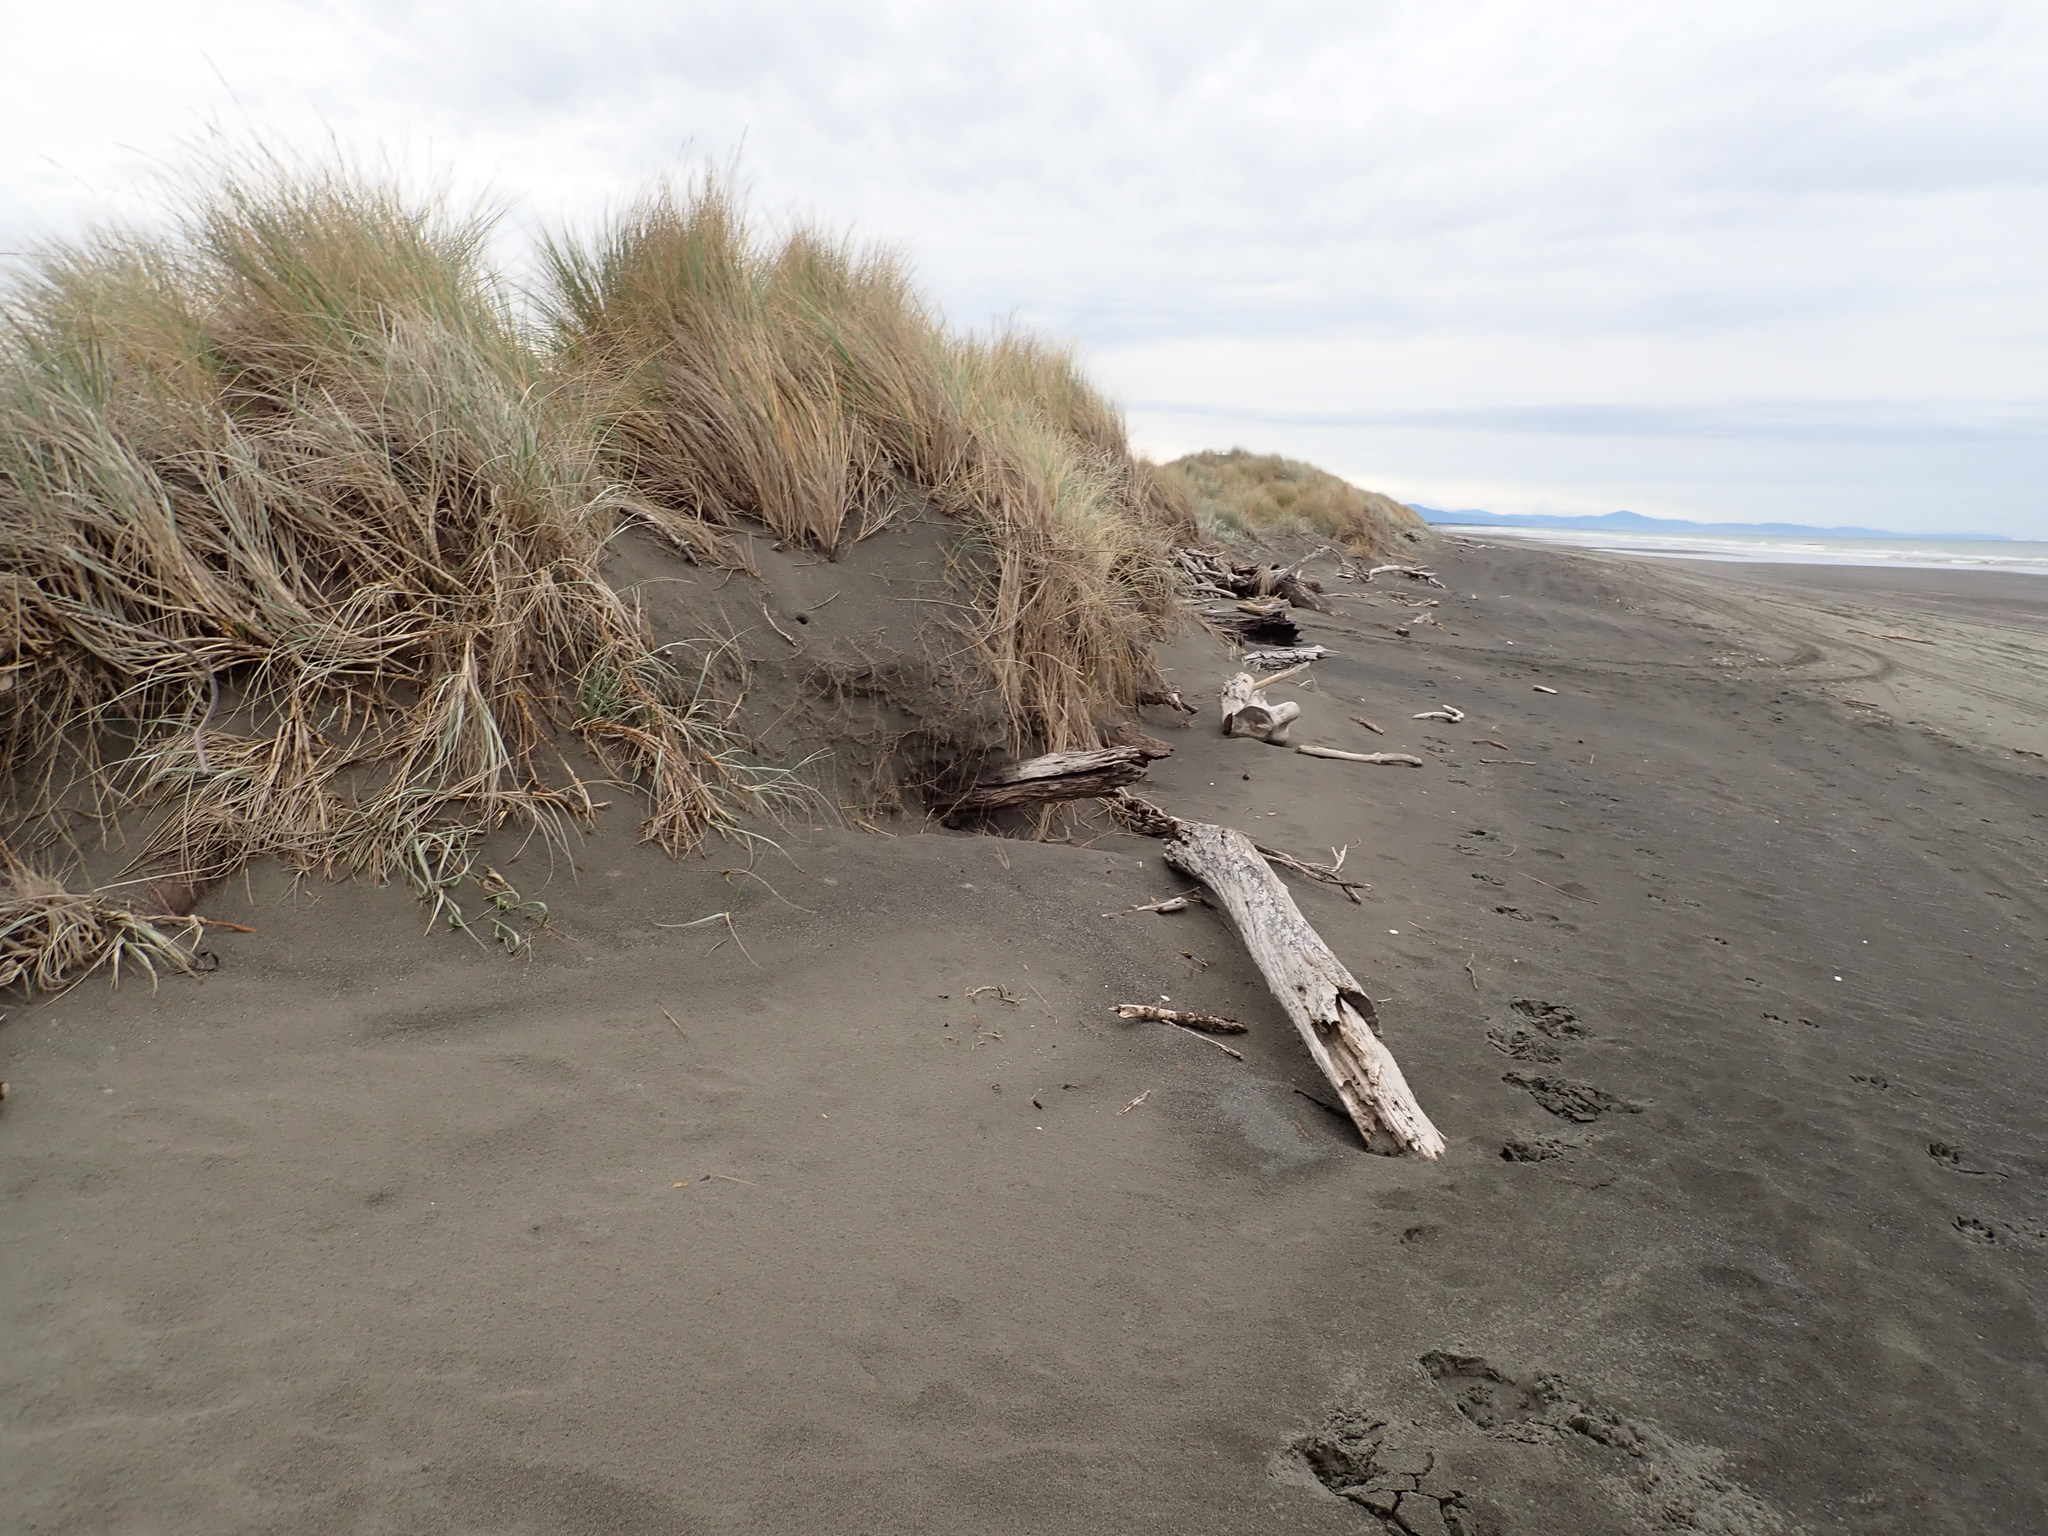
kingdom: Plantae
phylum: Tracheophyta
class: Liliopsida
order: Poales
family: Poaceae
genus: Calamagrostis
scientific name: Calamagrostis arenaria
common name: European beachgrass
